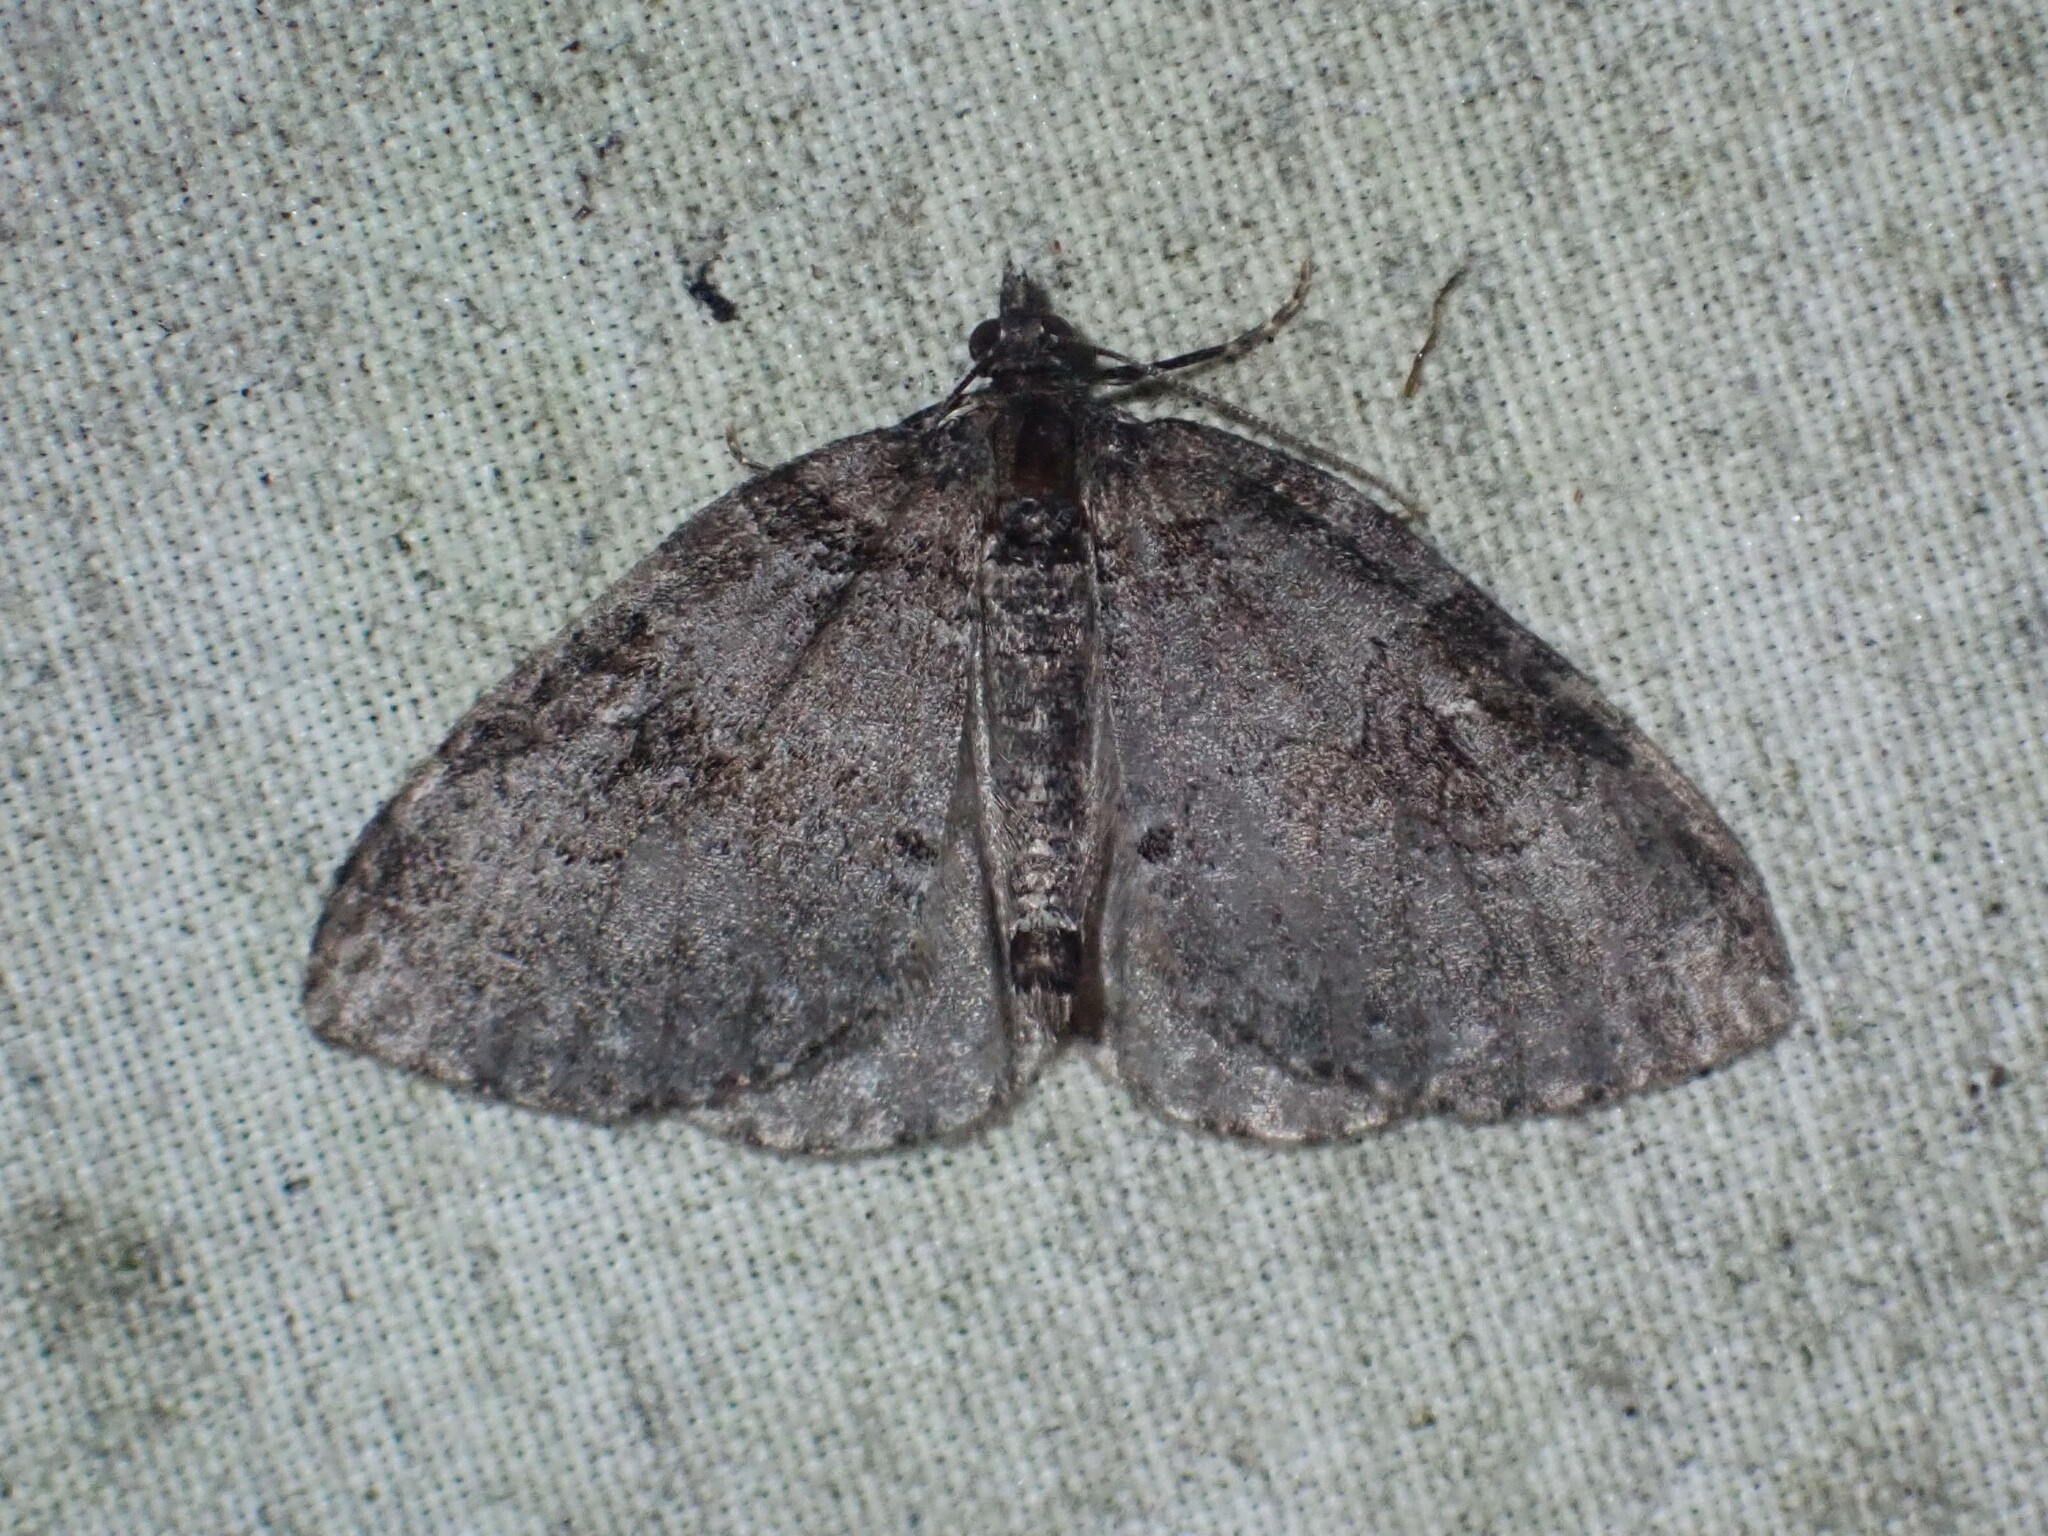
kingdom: Animalia
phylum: Arthropoda
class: Insecta
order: Lepidoptera
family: Geometridae
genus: Plemyria
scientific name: Plemyria georgii
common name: George's carpet moth
